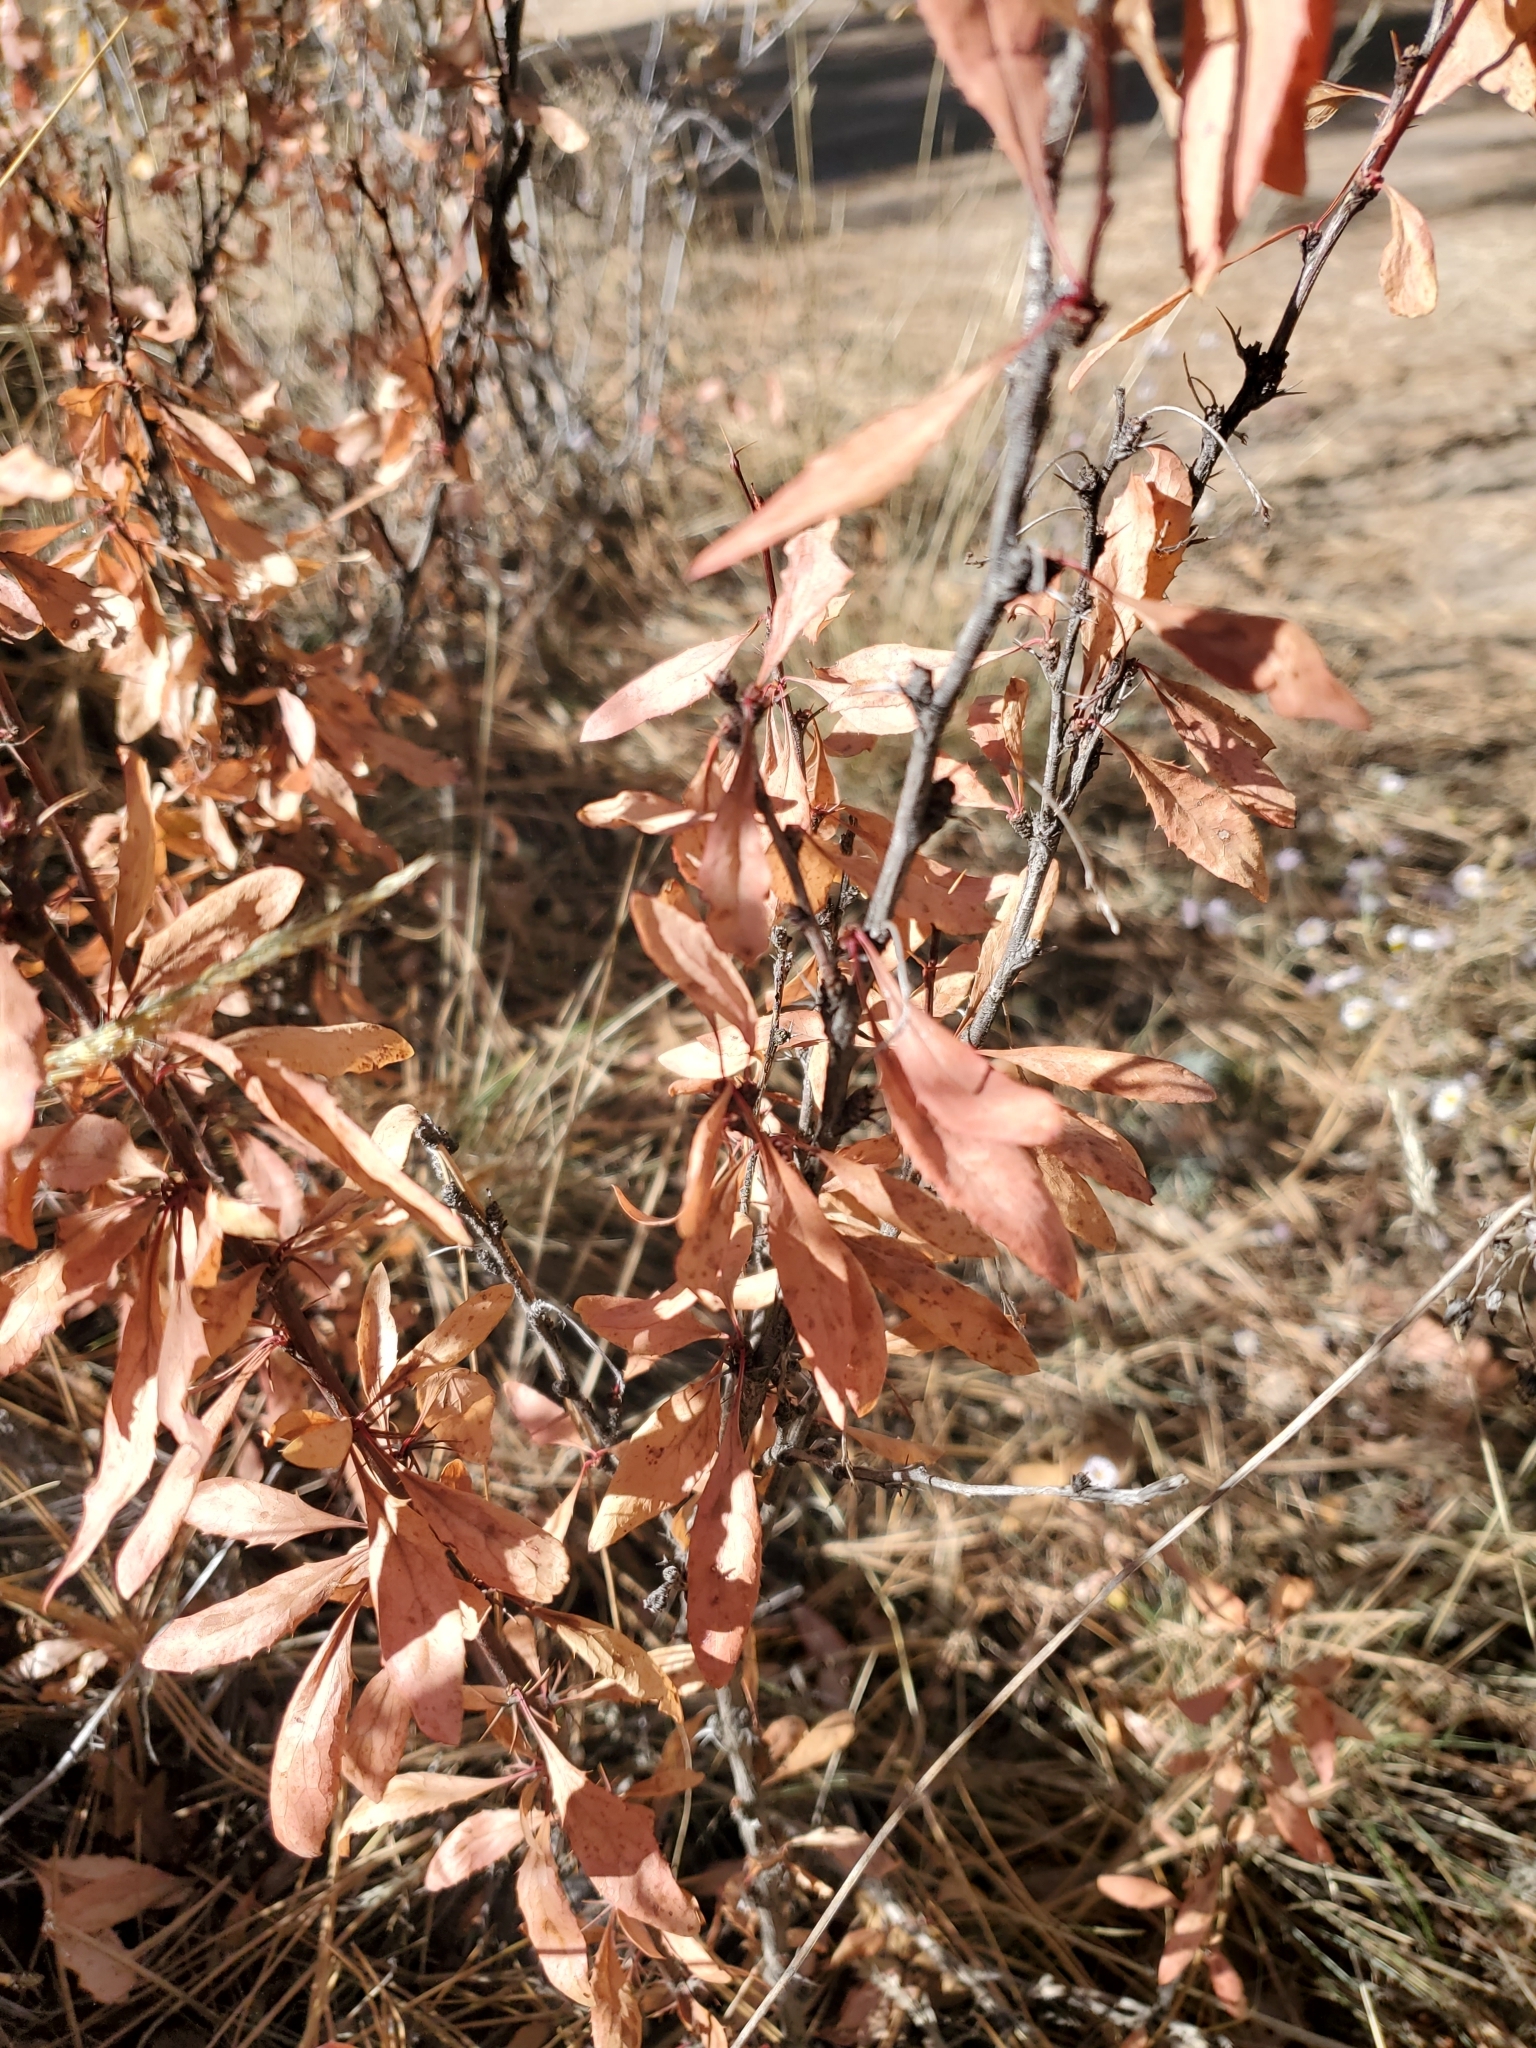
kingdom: Plantae
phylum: Tracheophyta
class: Magnoliopsida
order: Ranunculales
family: Berberidaceae
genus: Berberis
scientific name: Berberis fendleri
